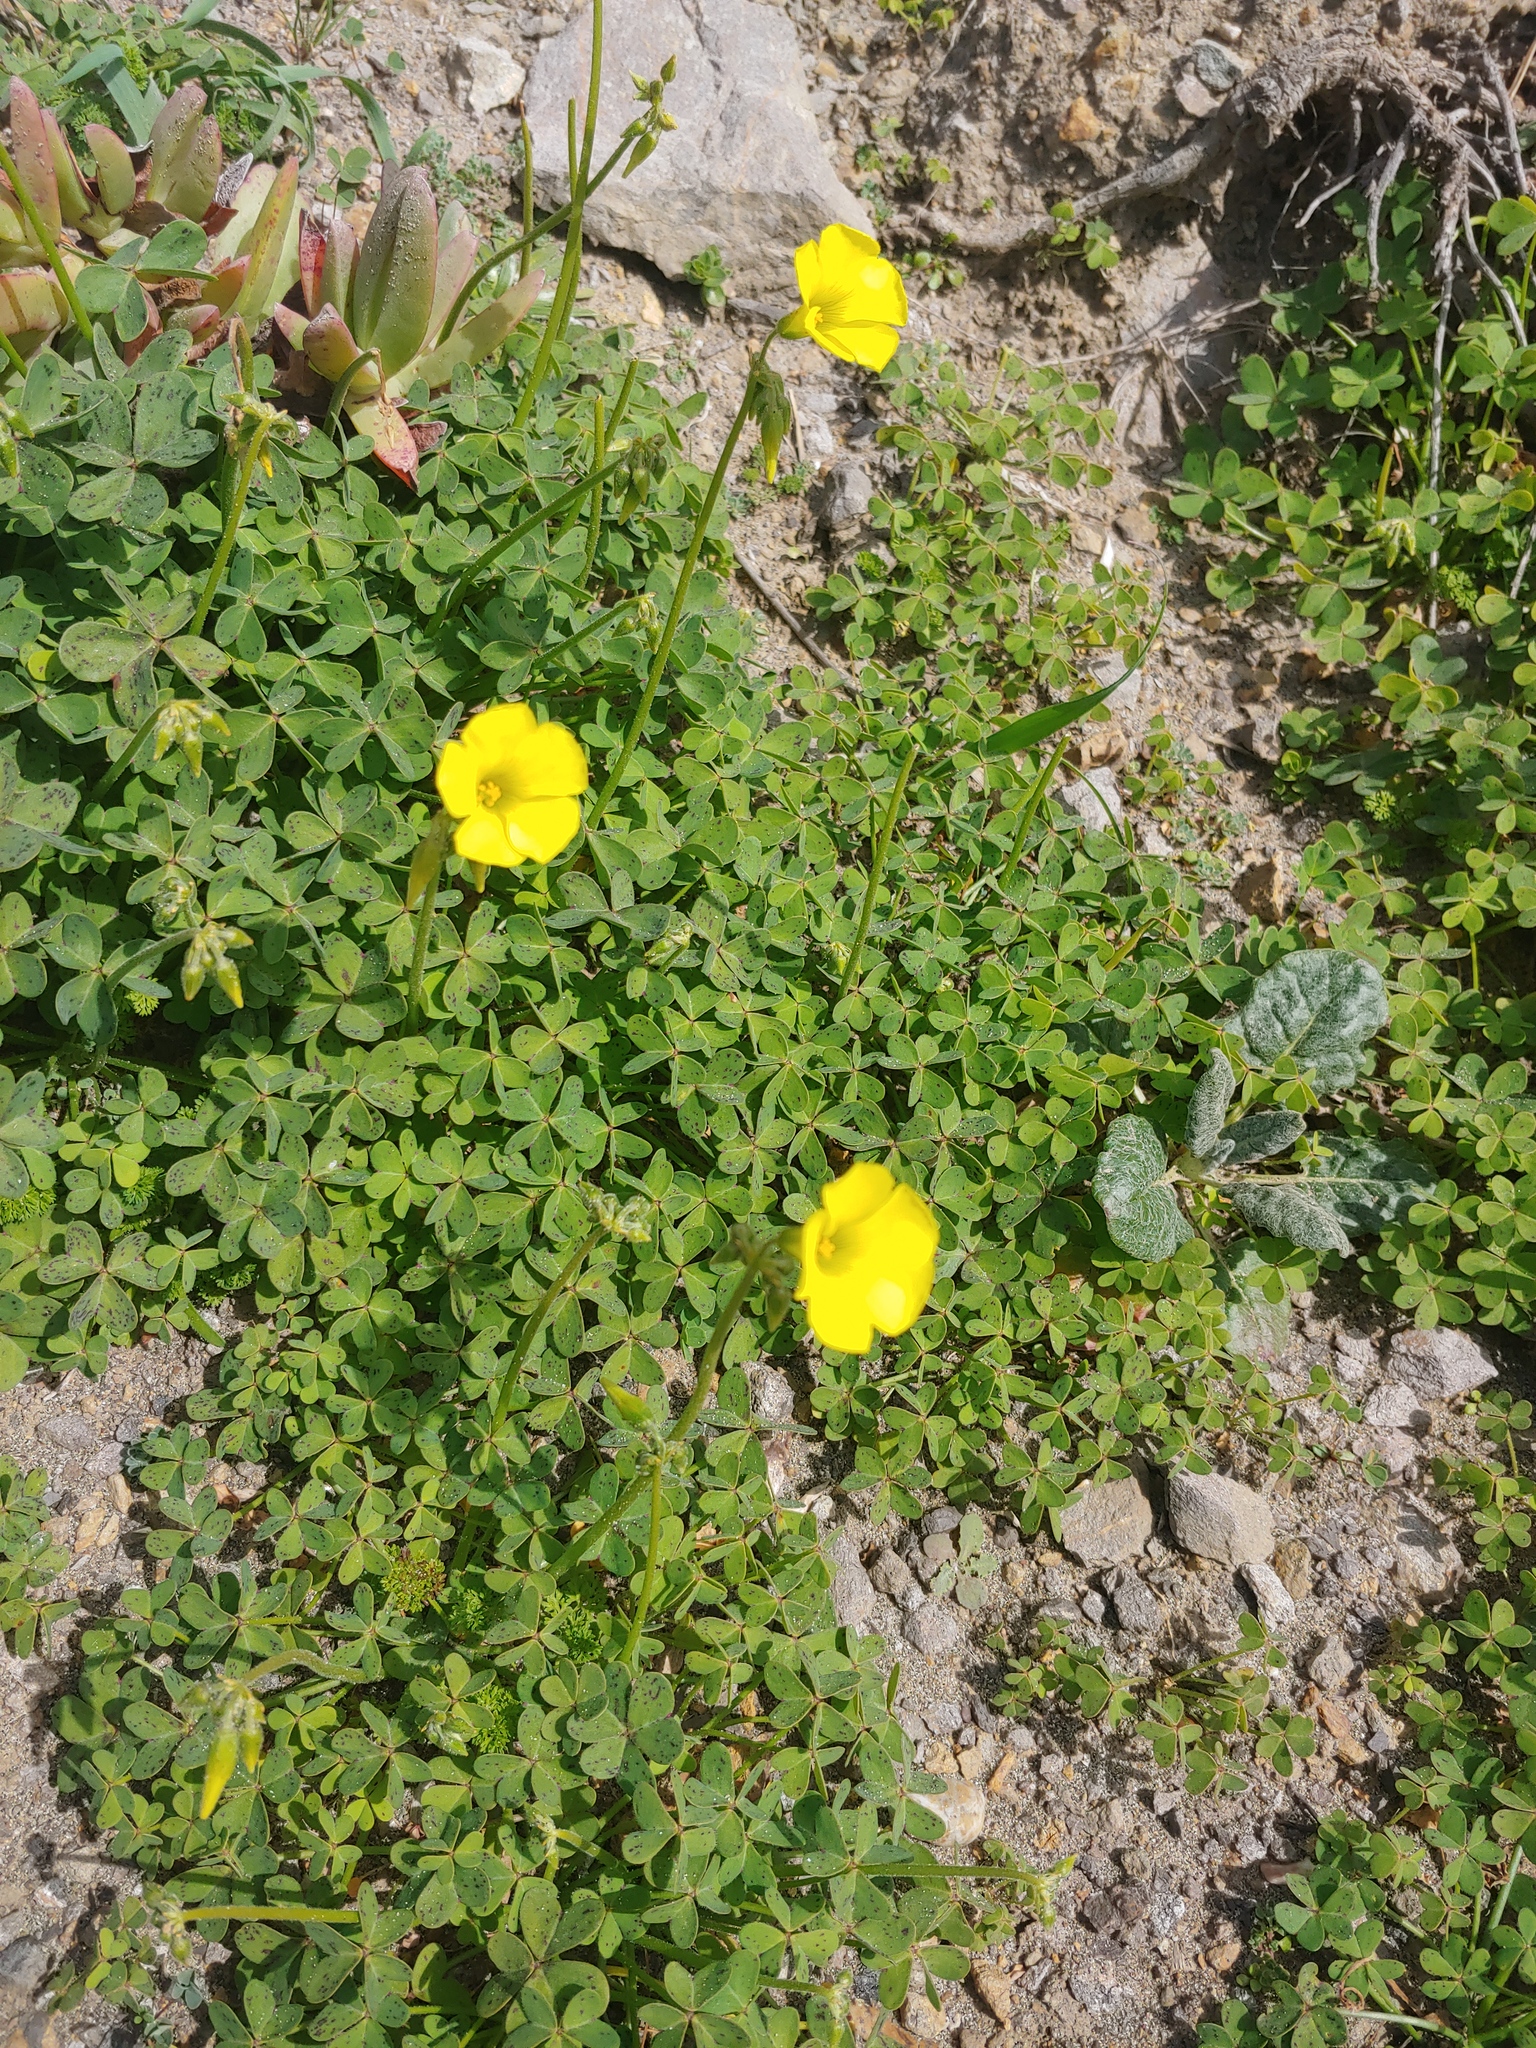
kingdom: Plantae
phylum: Tracheophyta
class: Magnoliopsida
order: Oxalidales
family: Oxalidaceae
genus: Oxalis
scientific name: Oxalis pes-caprae
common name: Bermuda-buttercup
